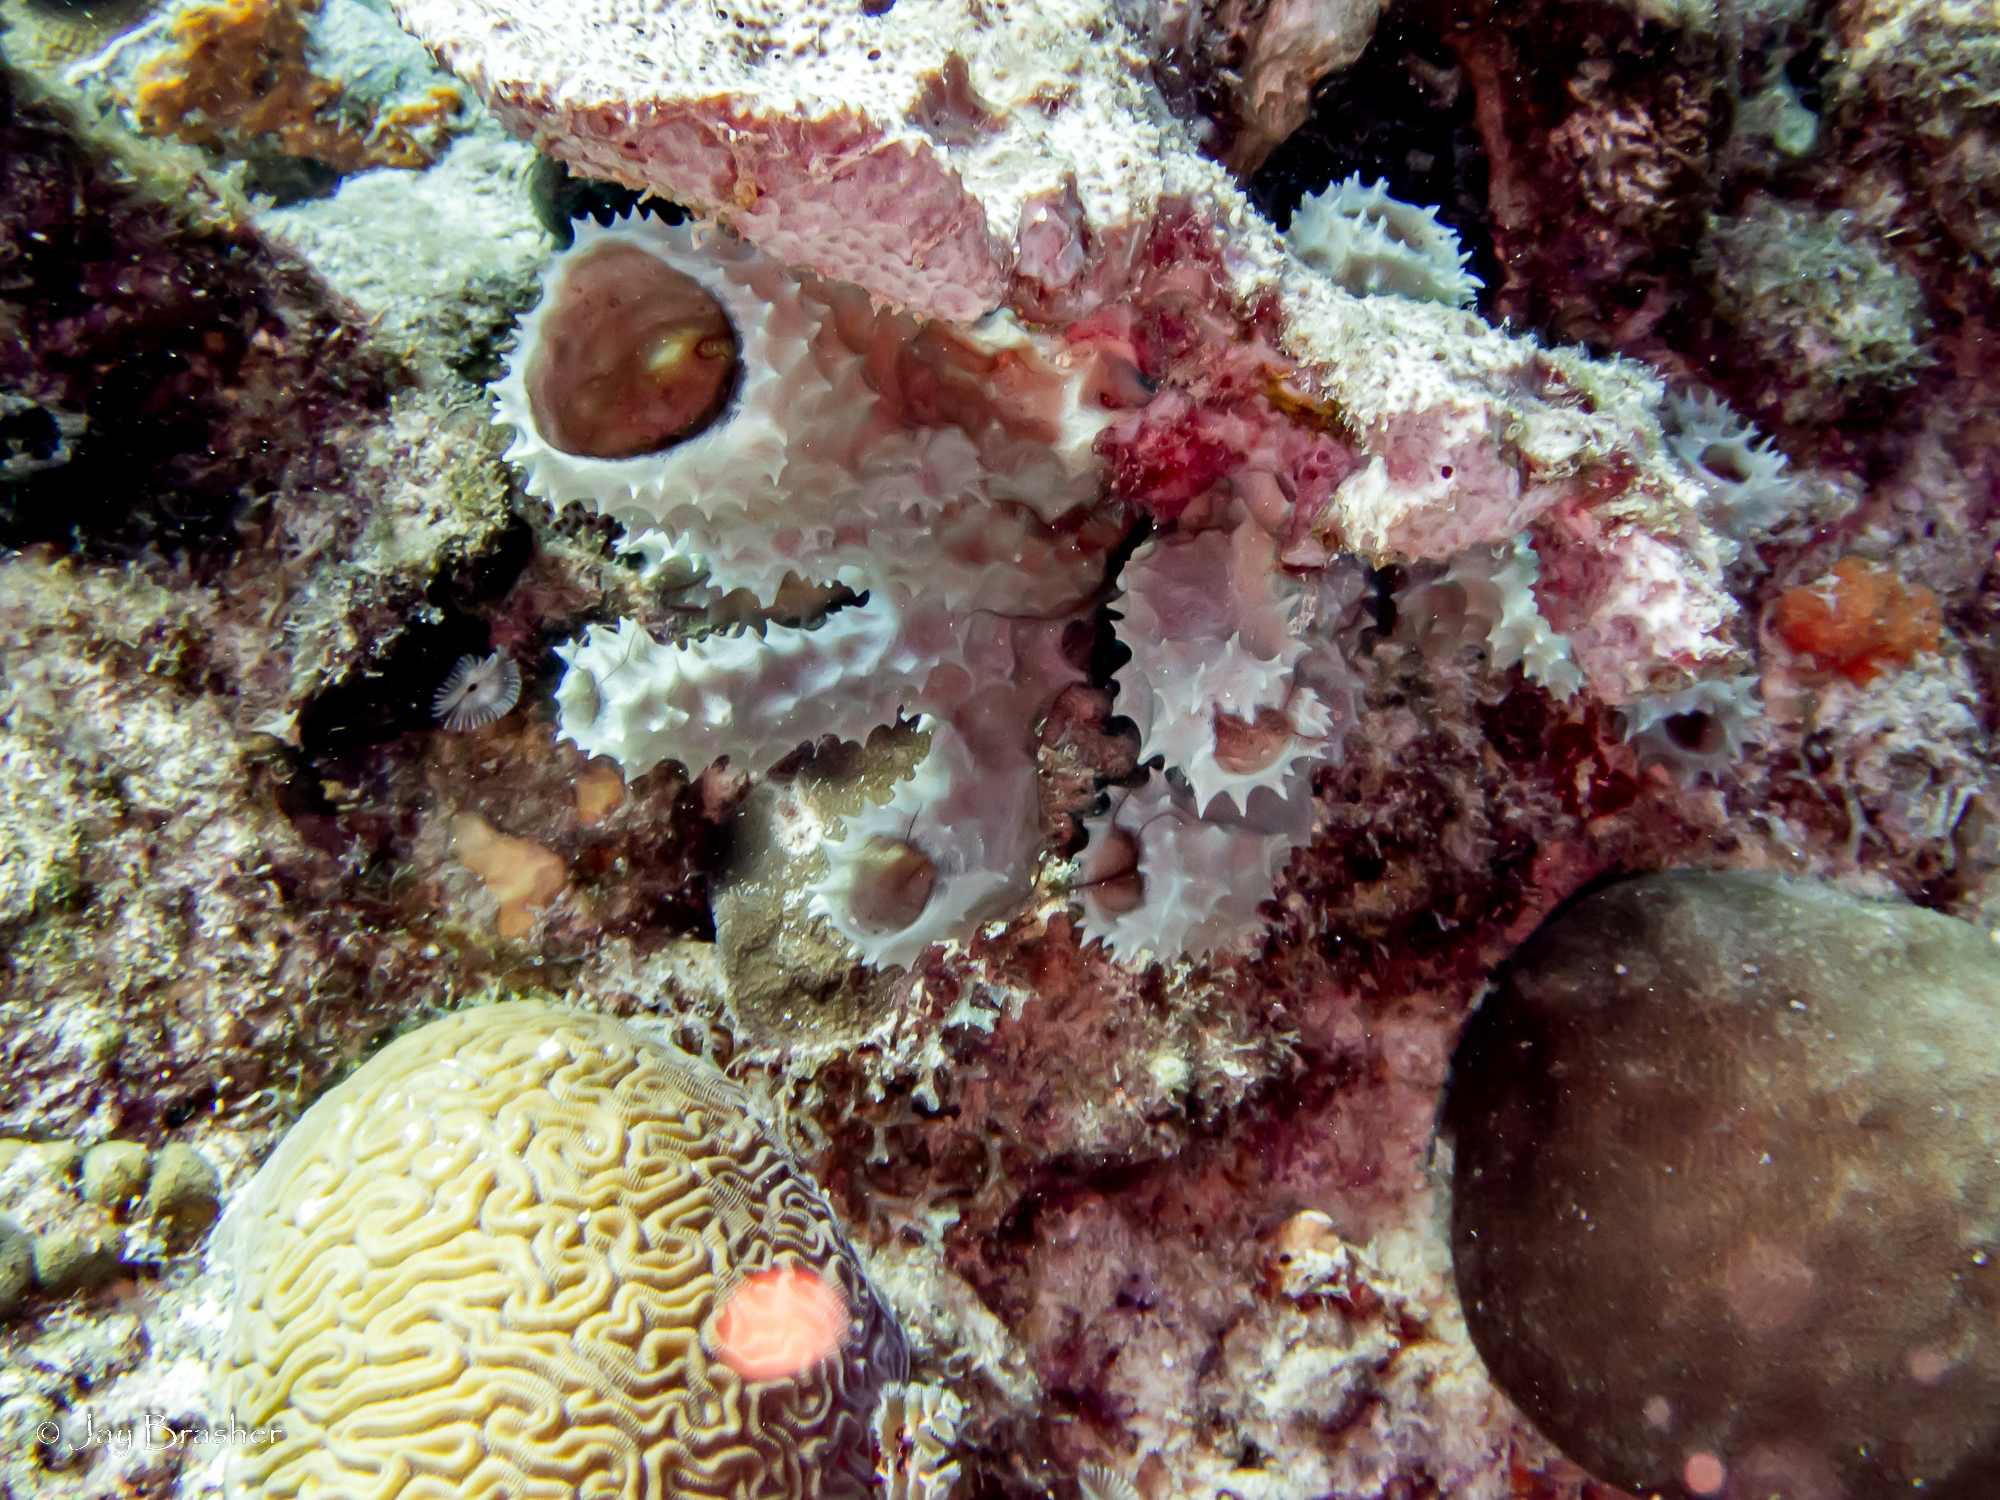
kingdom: Animalia
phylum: Porifera
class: Demospongiae
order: Haplosclerida
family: Callyspongiidae
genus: Callyspongia
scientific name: Callyspongia aculeata
